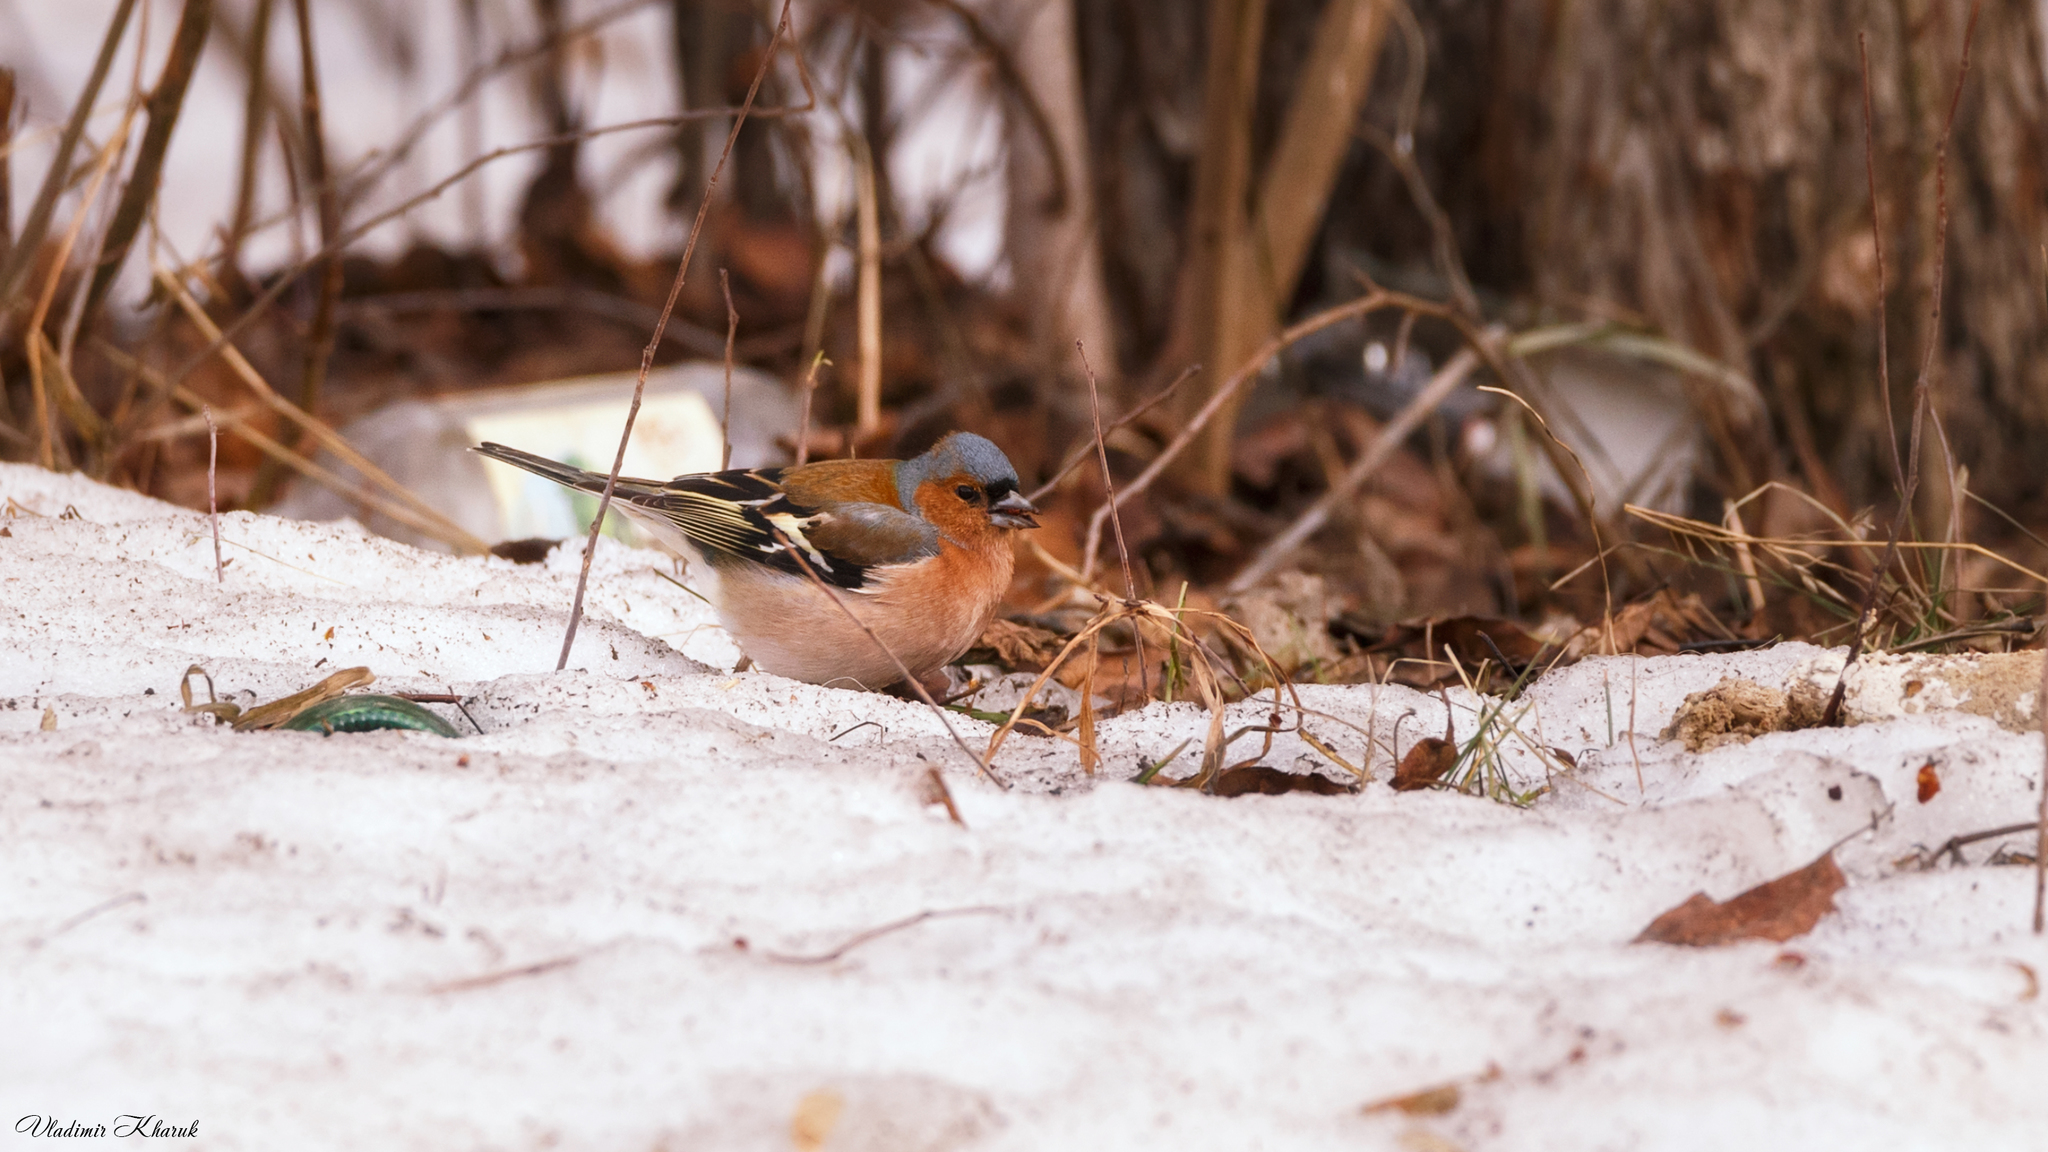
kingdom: Animalia
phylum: Chordata
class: Aves
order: Passeriformes
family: Fringillidae
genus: Fringilla
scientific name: Fringilla coelebs
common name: Common chaffinch
